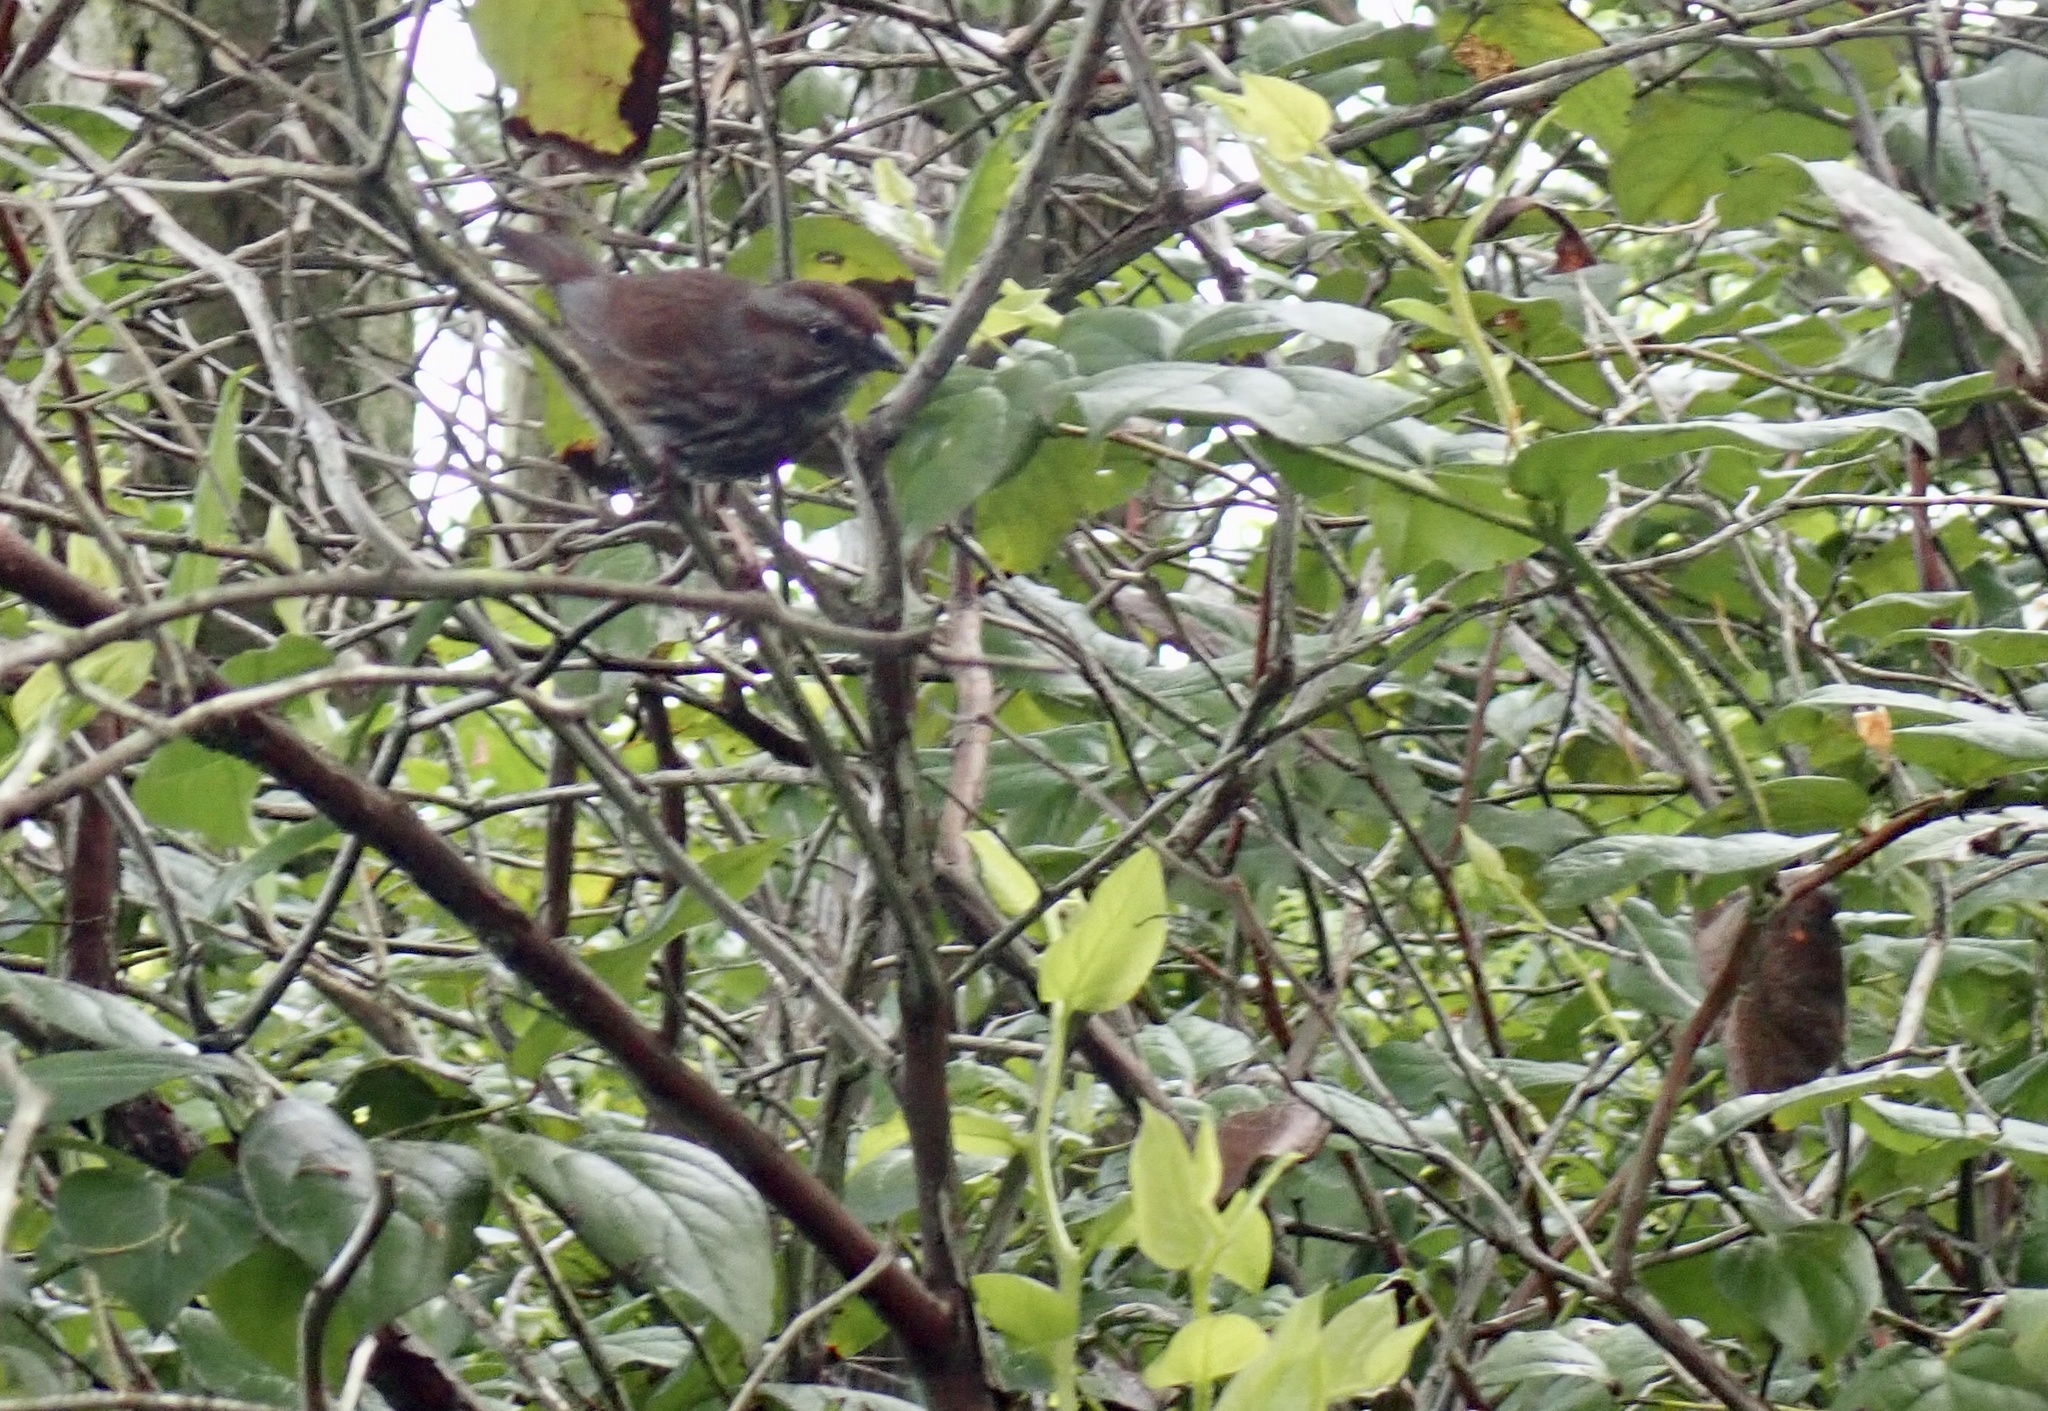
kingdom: Animalia
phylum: Chordata
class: Aves
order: Passeriformes
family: Passerellidae
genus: Melospiza
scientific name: Melospiza melodia
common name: Song sparrow
